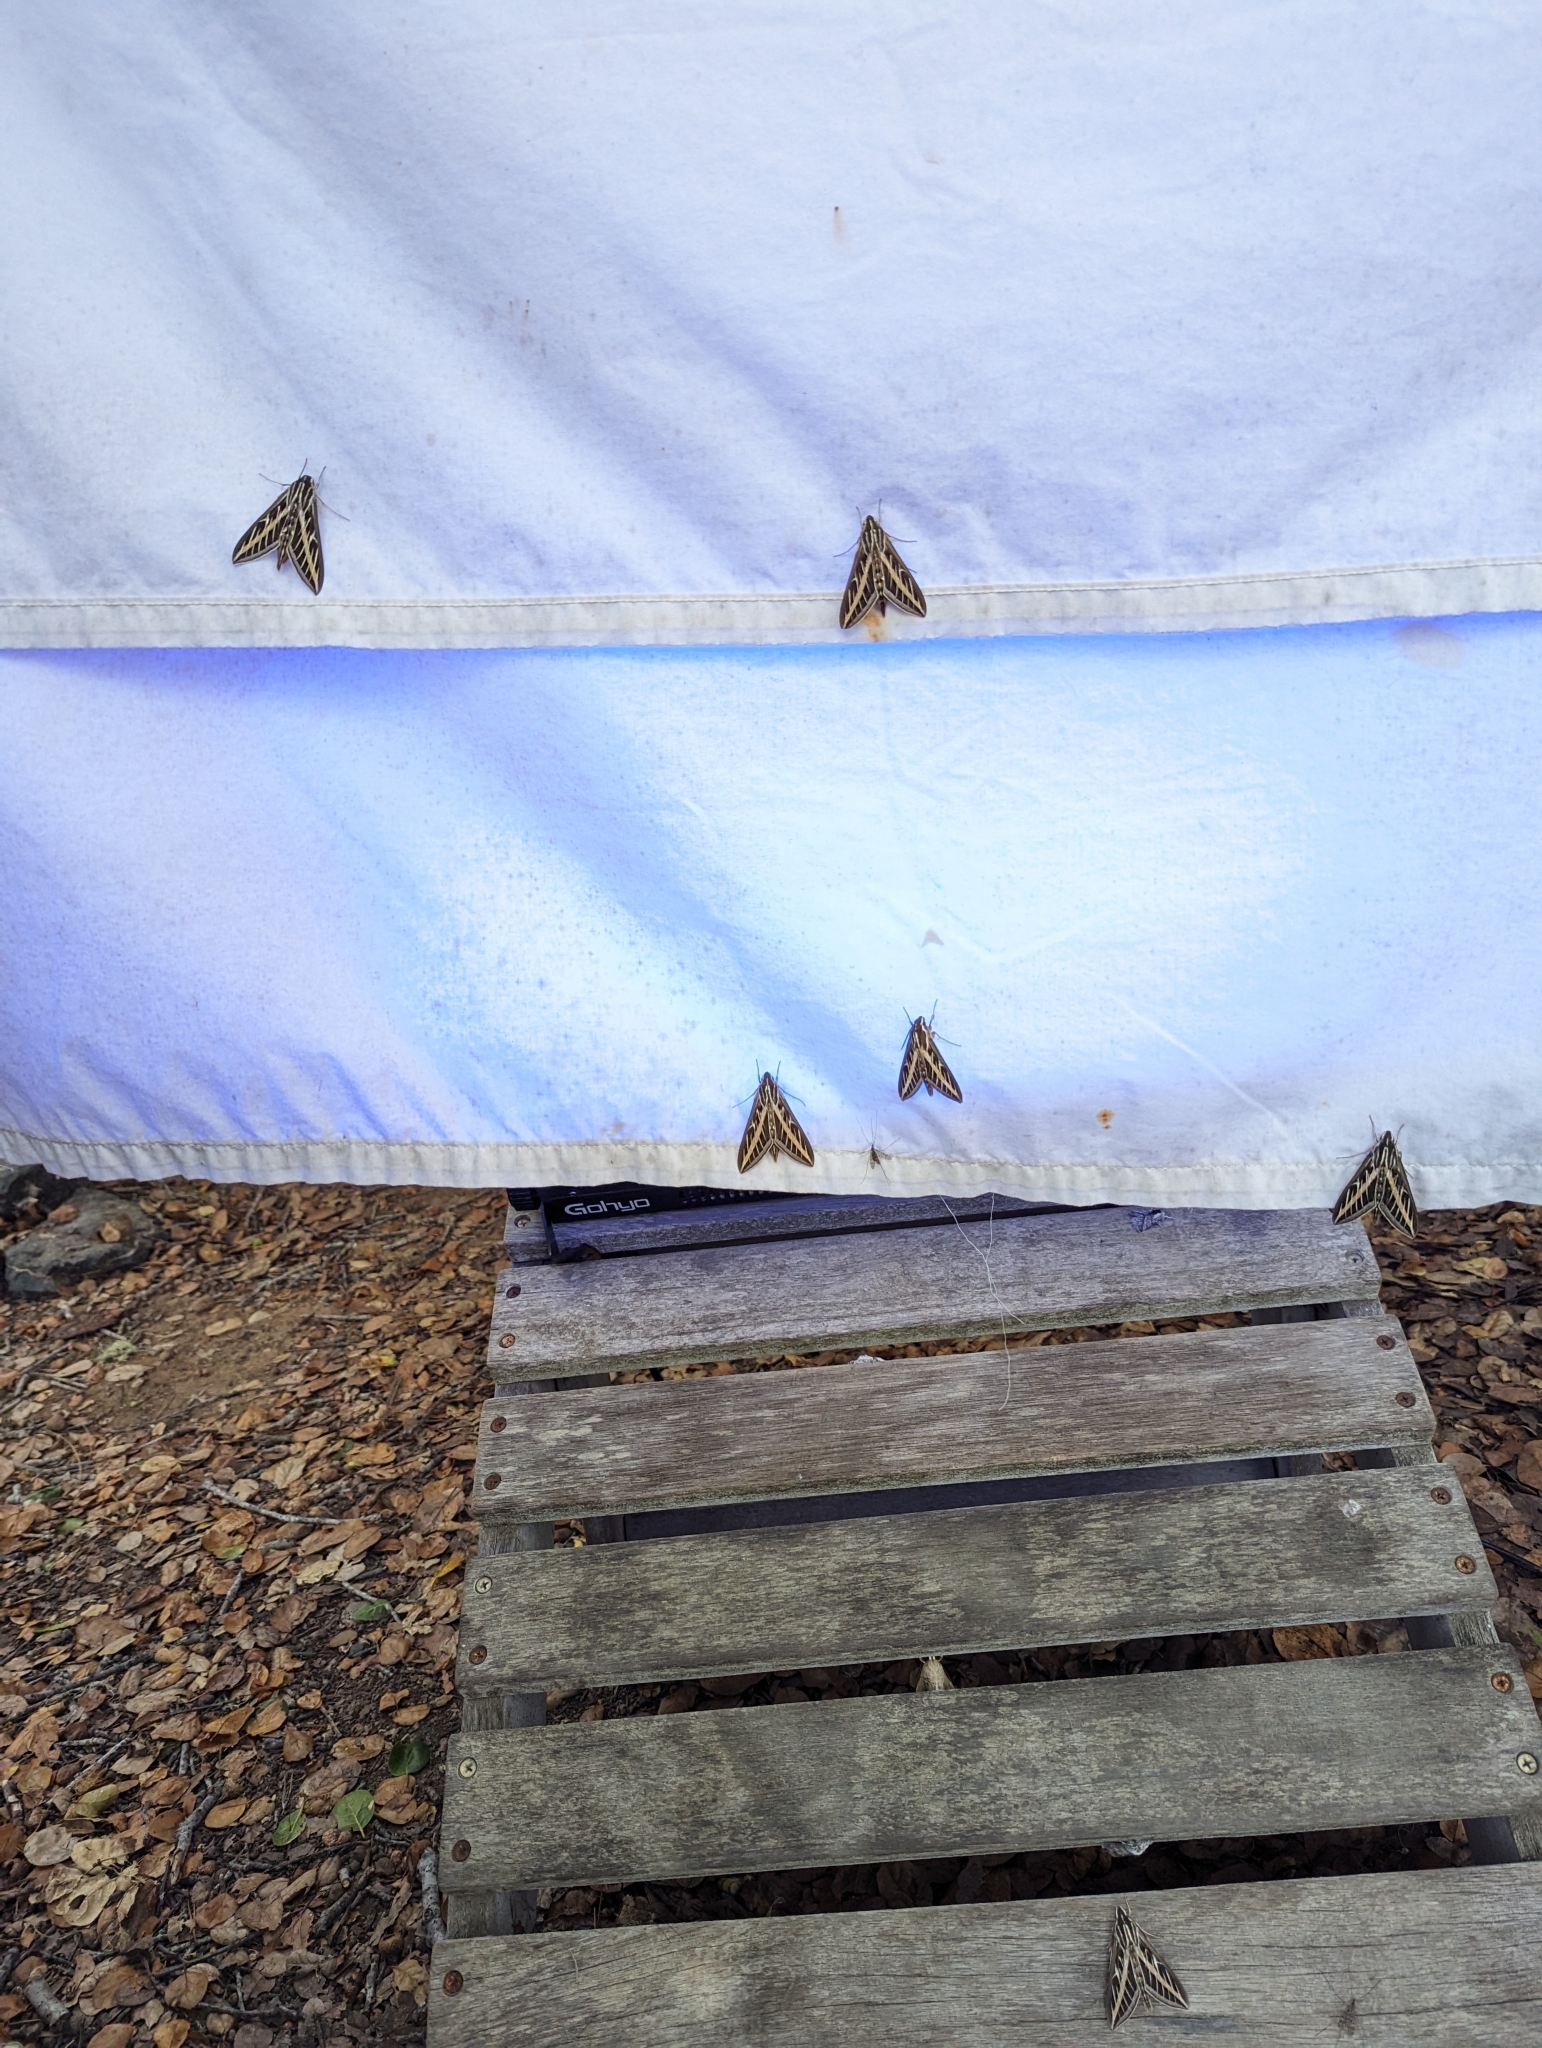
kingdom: Animalia
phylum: Arthropoda
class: Insecta
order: Lepidoptera
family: Sphingidae
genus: Hyles
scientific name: Hyles lineata
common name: White-lined sphinx
